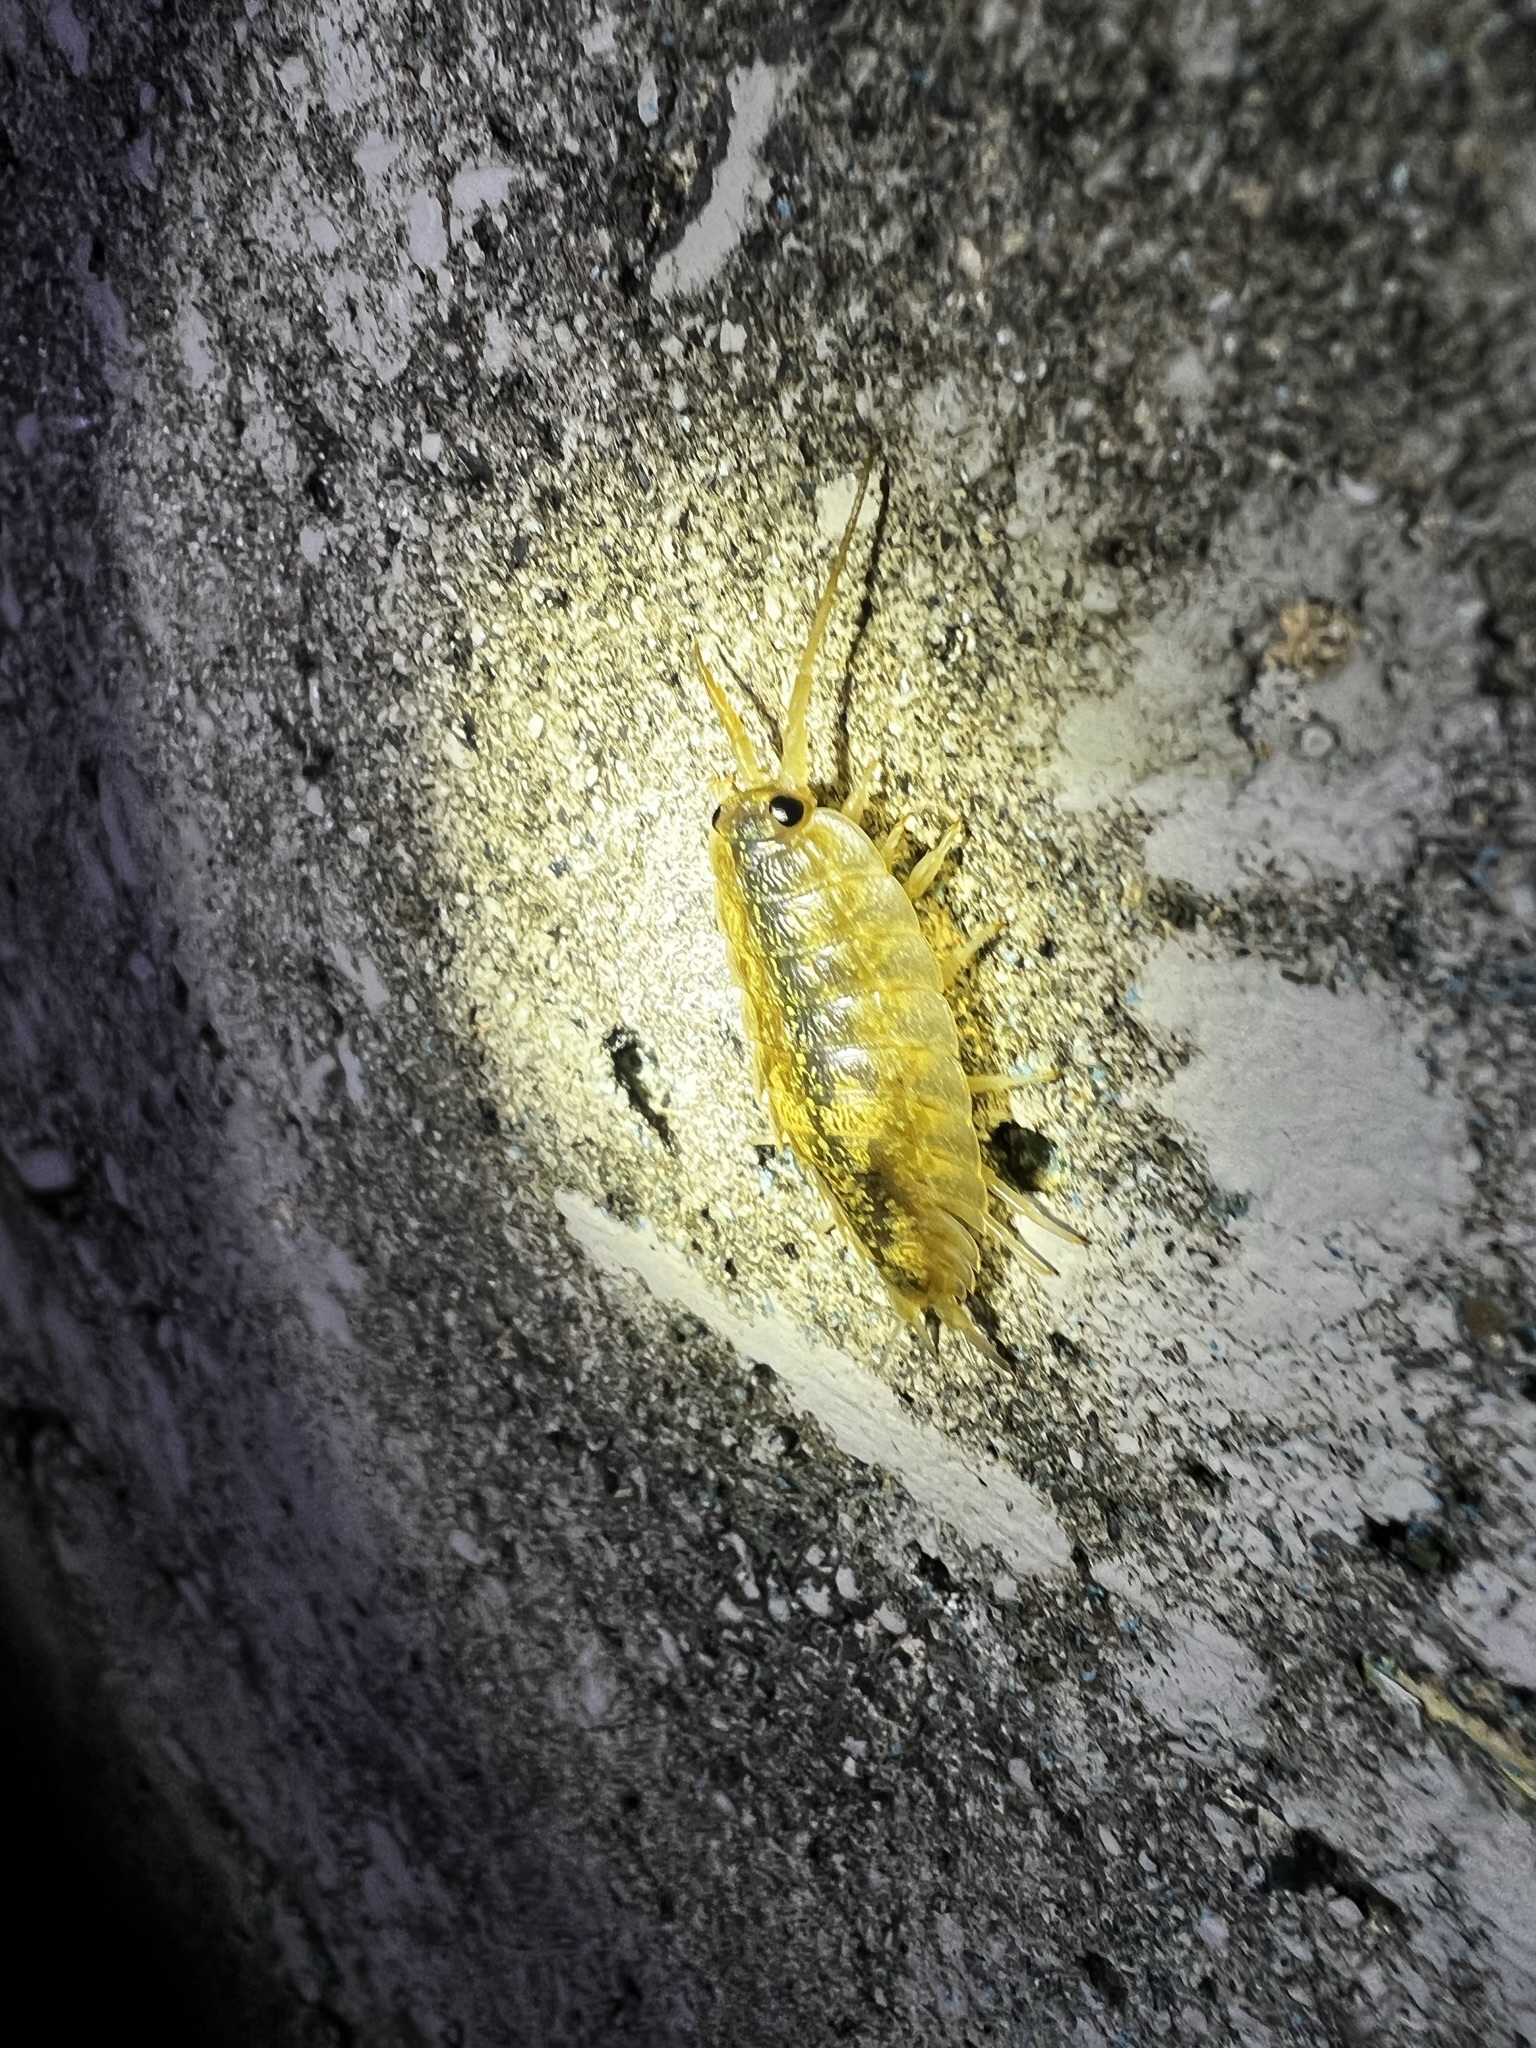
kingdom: Animalia
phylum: Arthropoda
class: Malacostraca
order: Isopoda
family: Ligiidae
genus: Ligia
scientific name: Ligia pallasii
